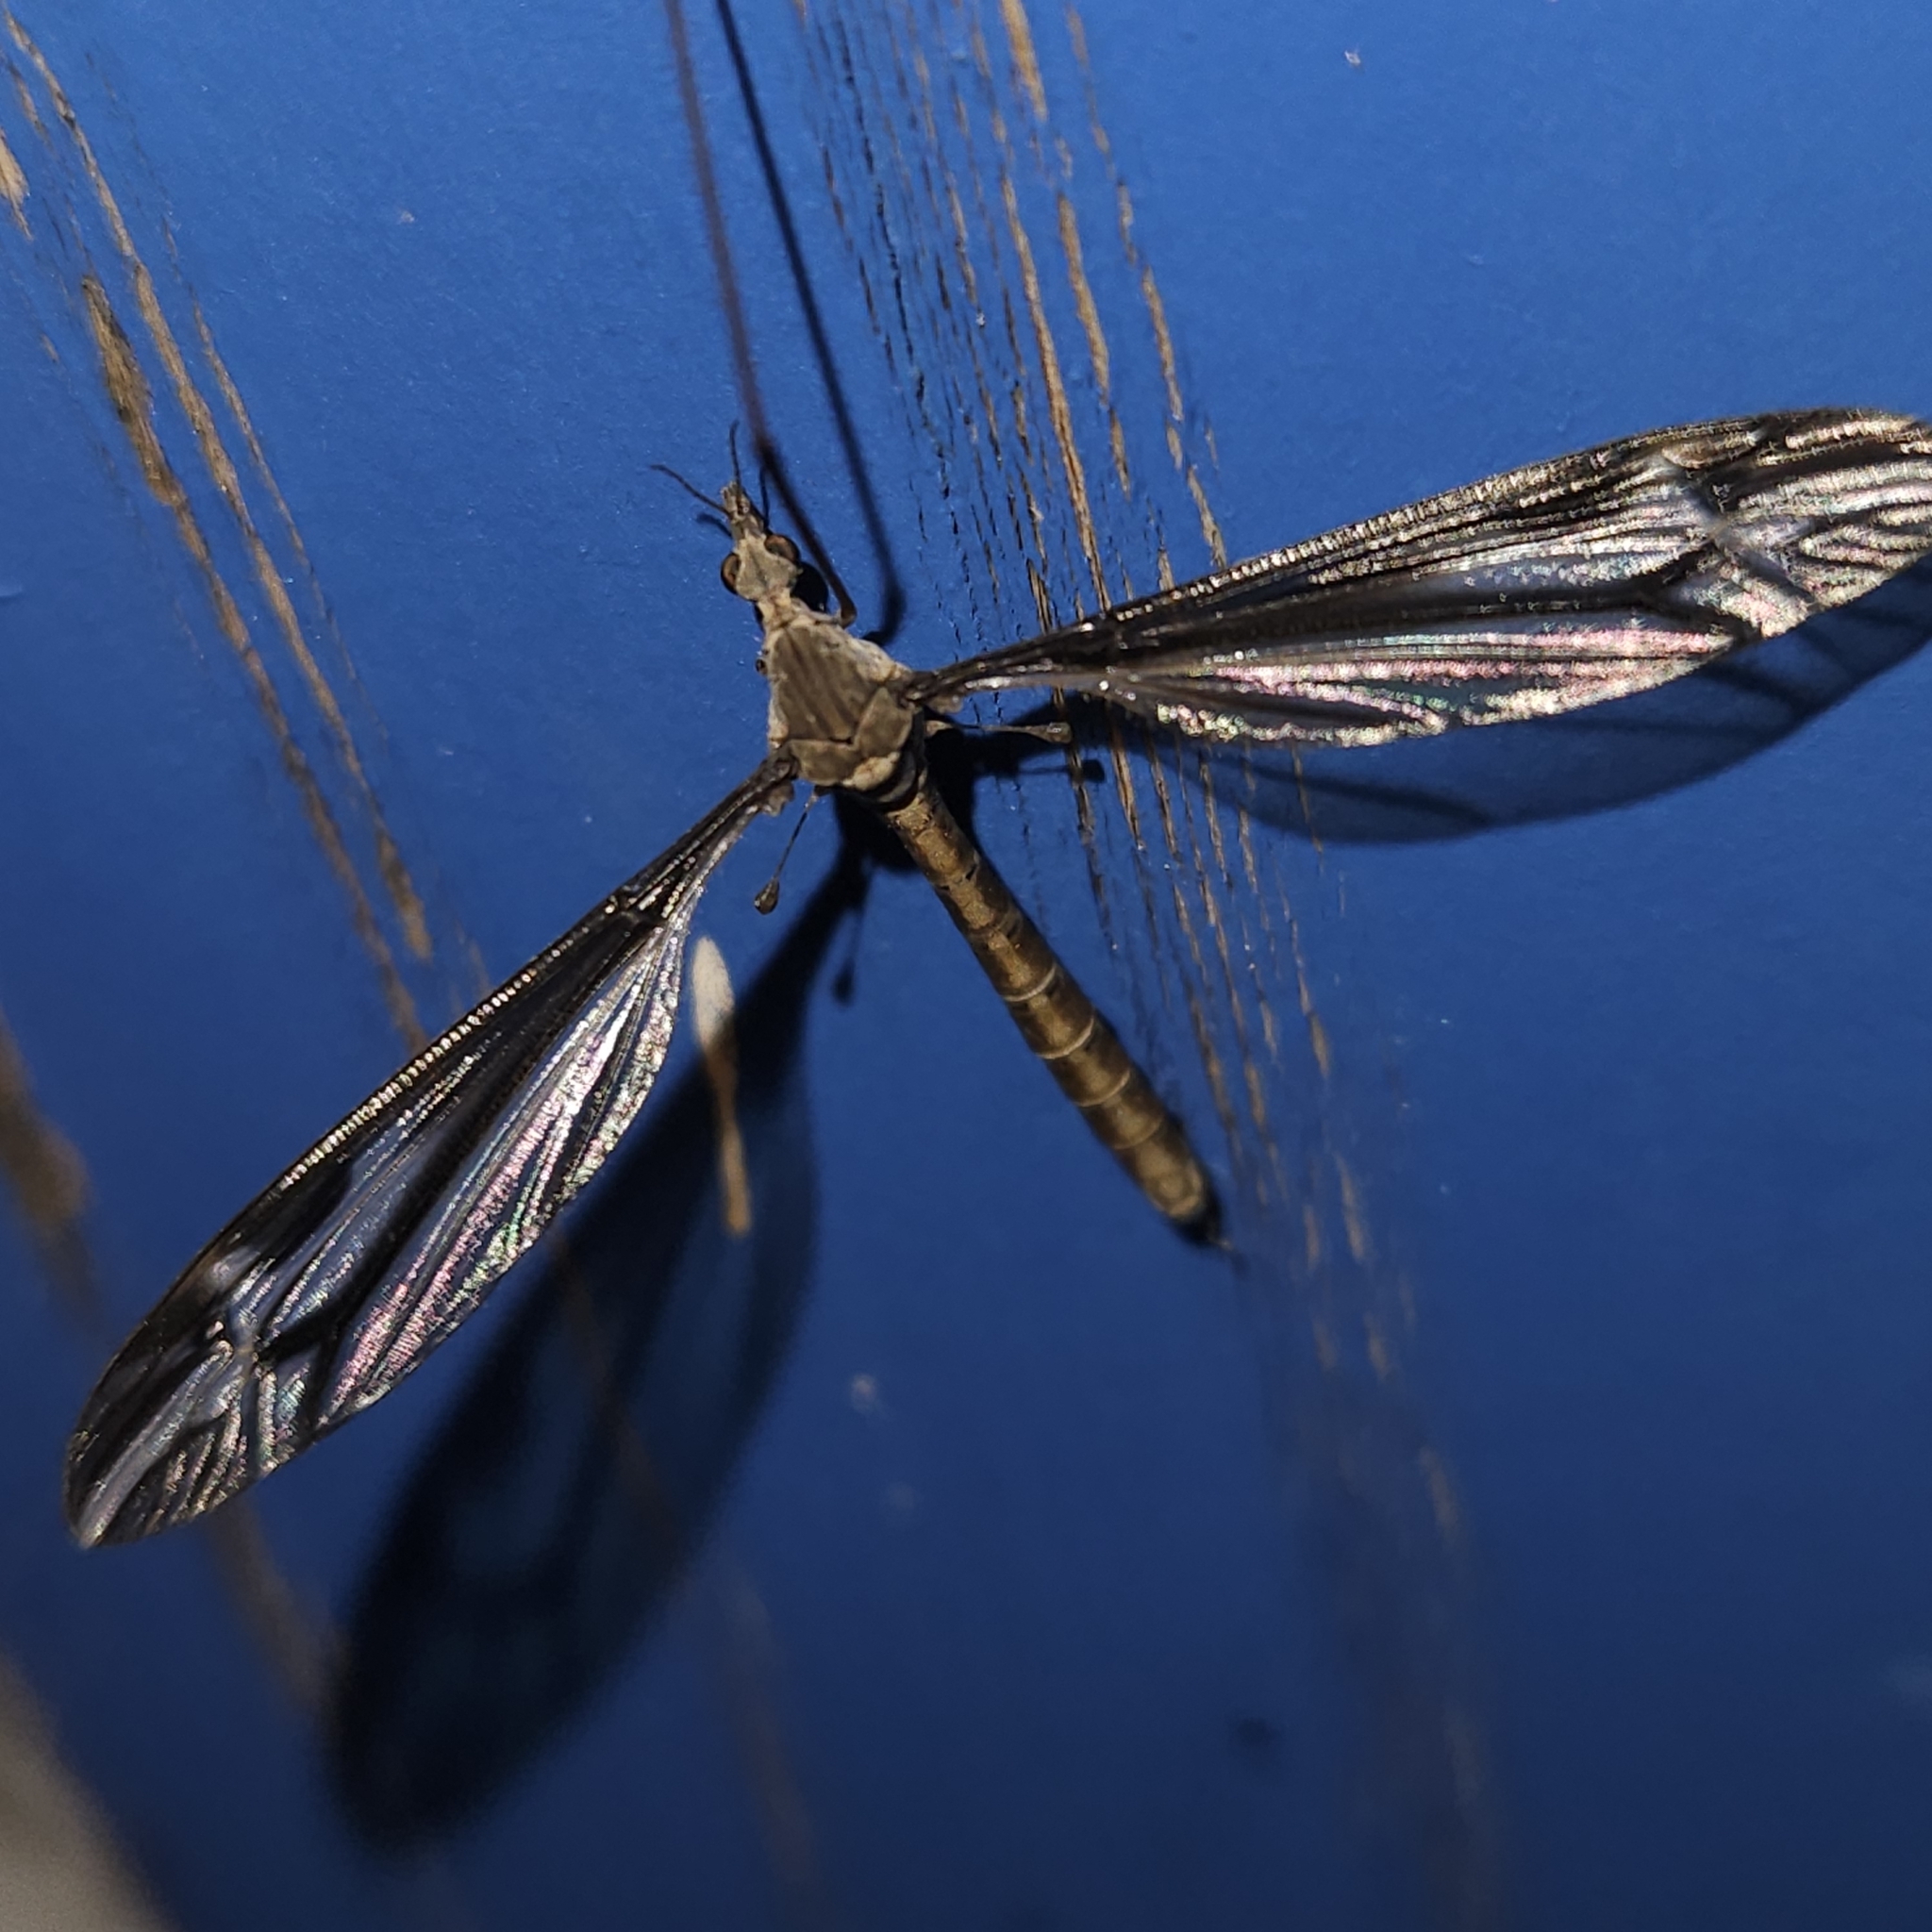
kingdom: Animalia
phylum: Arthropoda
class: Insecta
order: Diptera
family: Tipulidae
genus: Tipula
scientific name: Tipula furca
